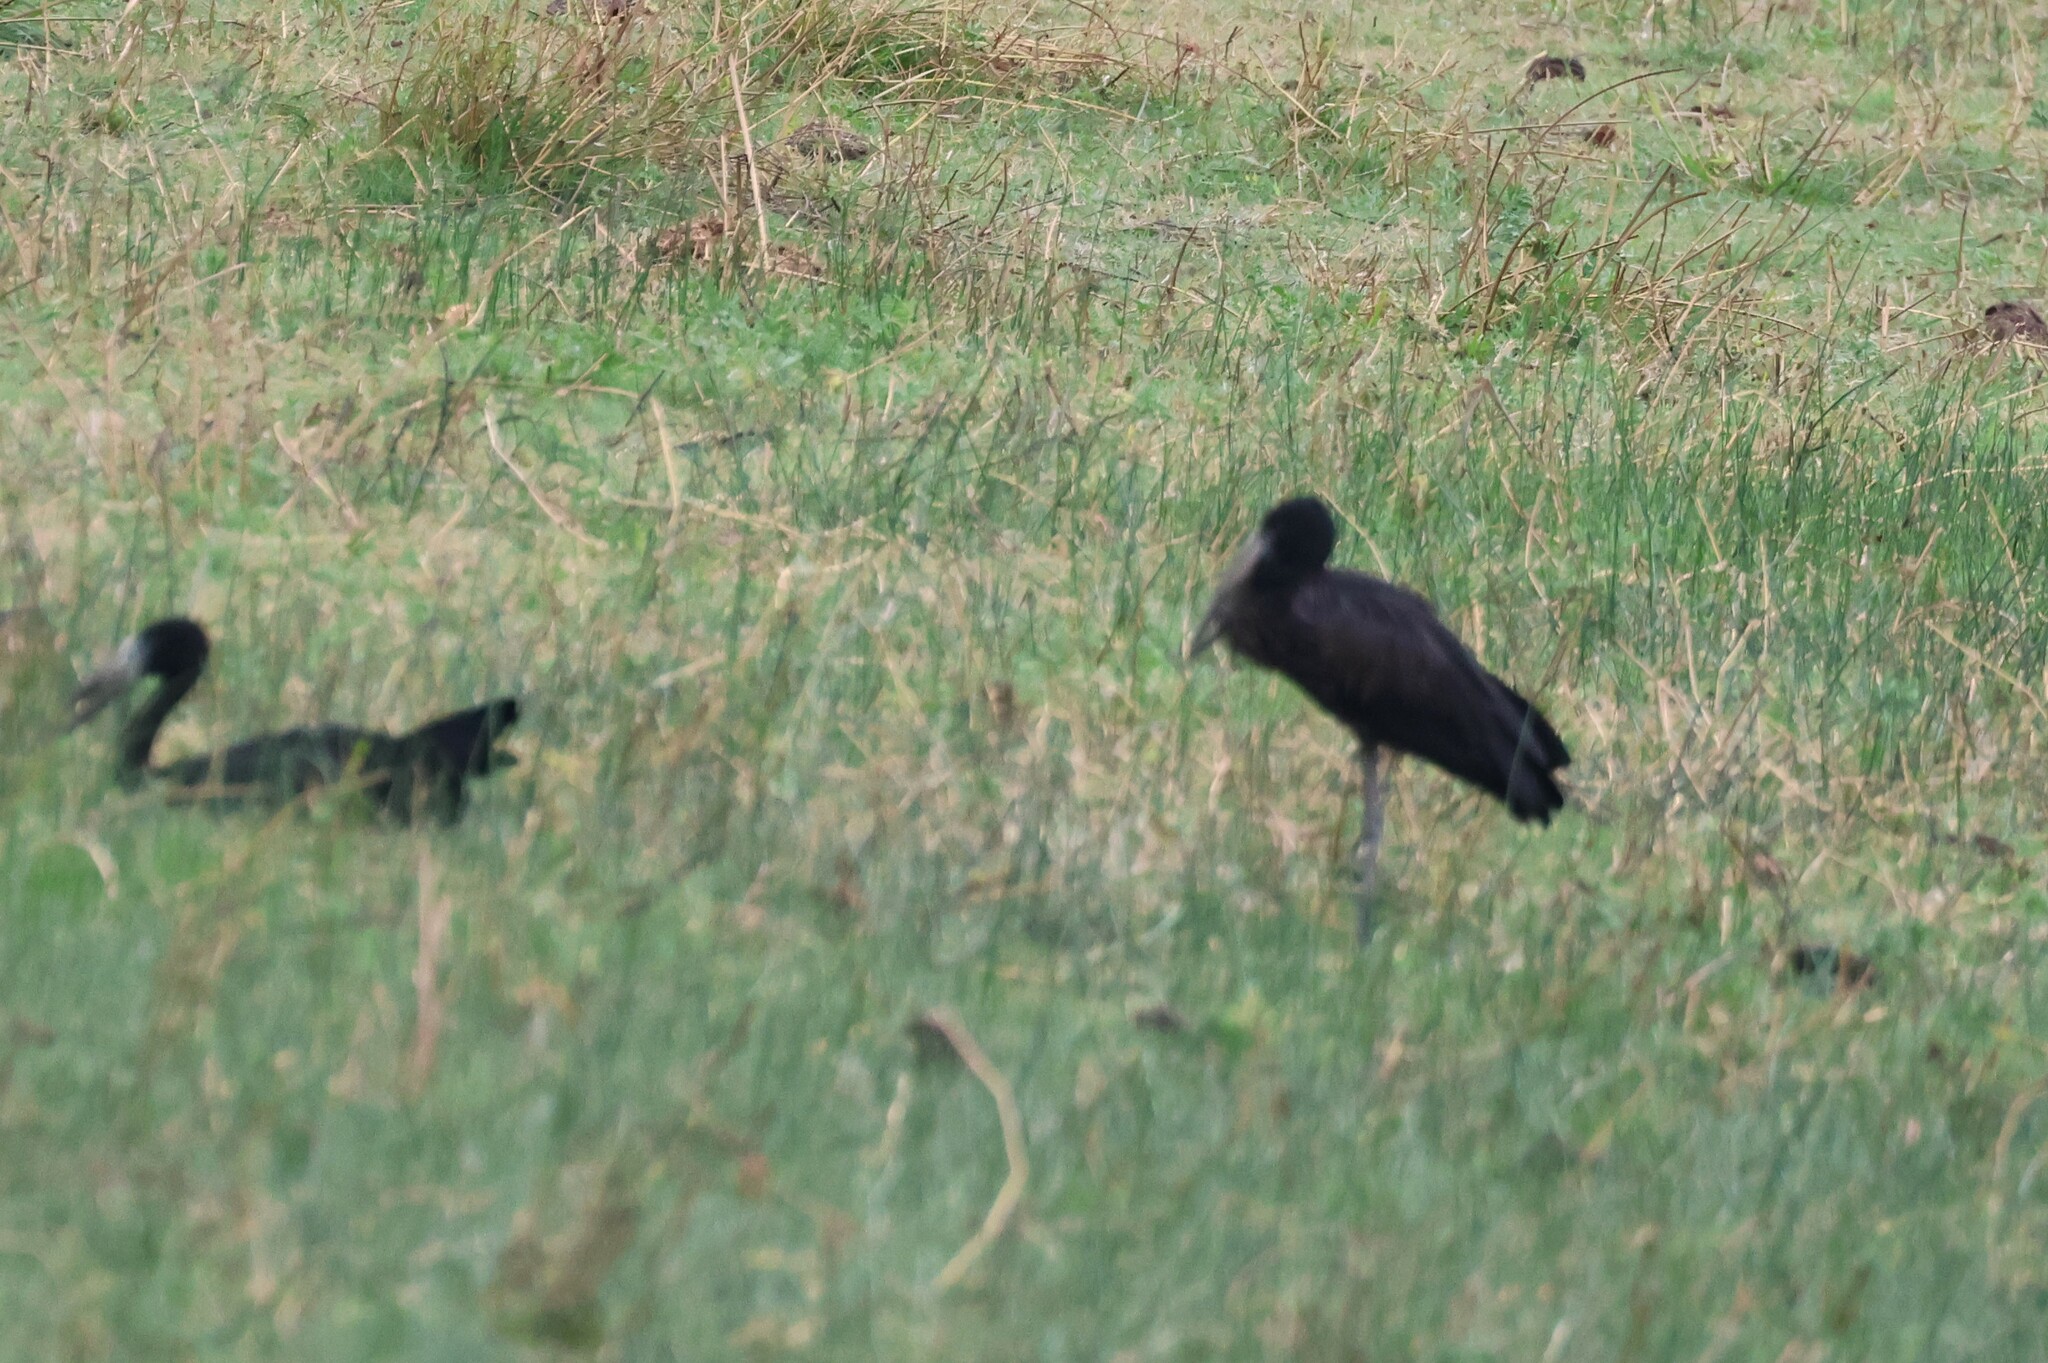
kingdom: Animalia
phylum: Chordata
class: Aves
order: Ciconiiformes
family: Ciconiidae
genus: Anastomus
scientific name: Anastomus lamelligerus
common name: African openbill
